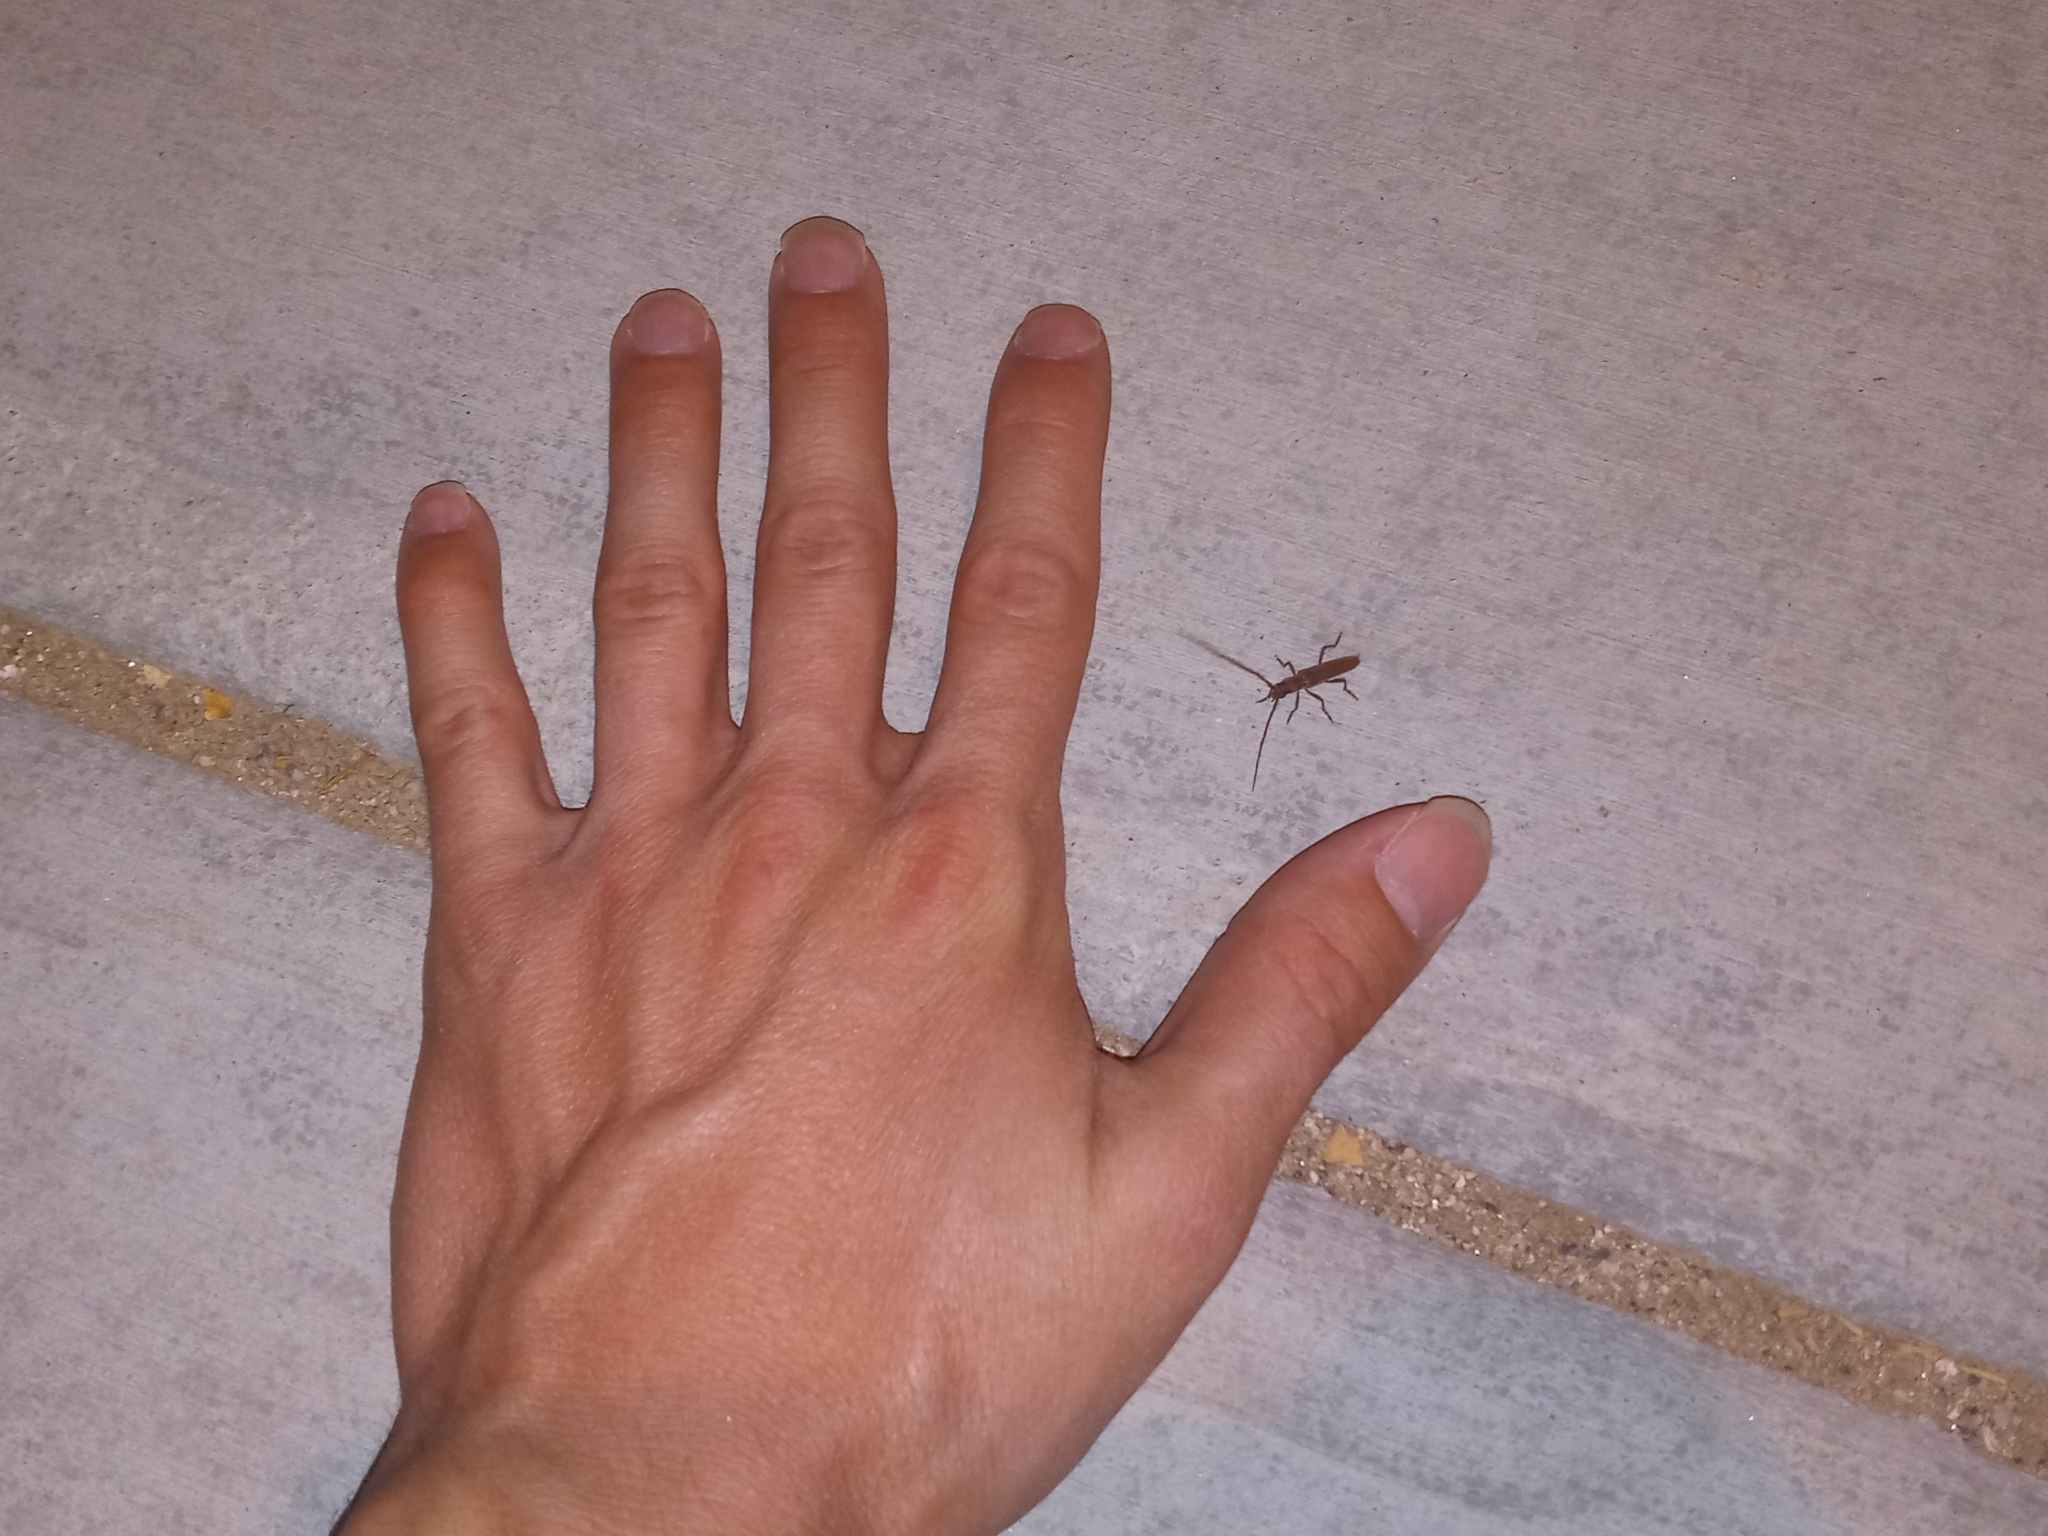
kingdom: Animalia
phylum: Arthropoda
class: Insecta
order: Coleoptera
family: Cerambycidae
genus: Aneflomorpha
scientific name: Aneflomorpha lineare
